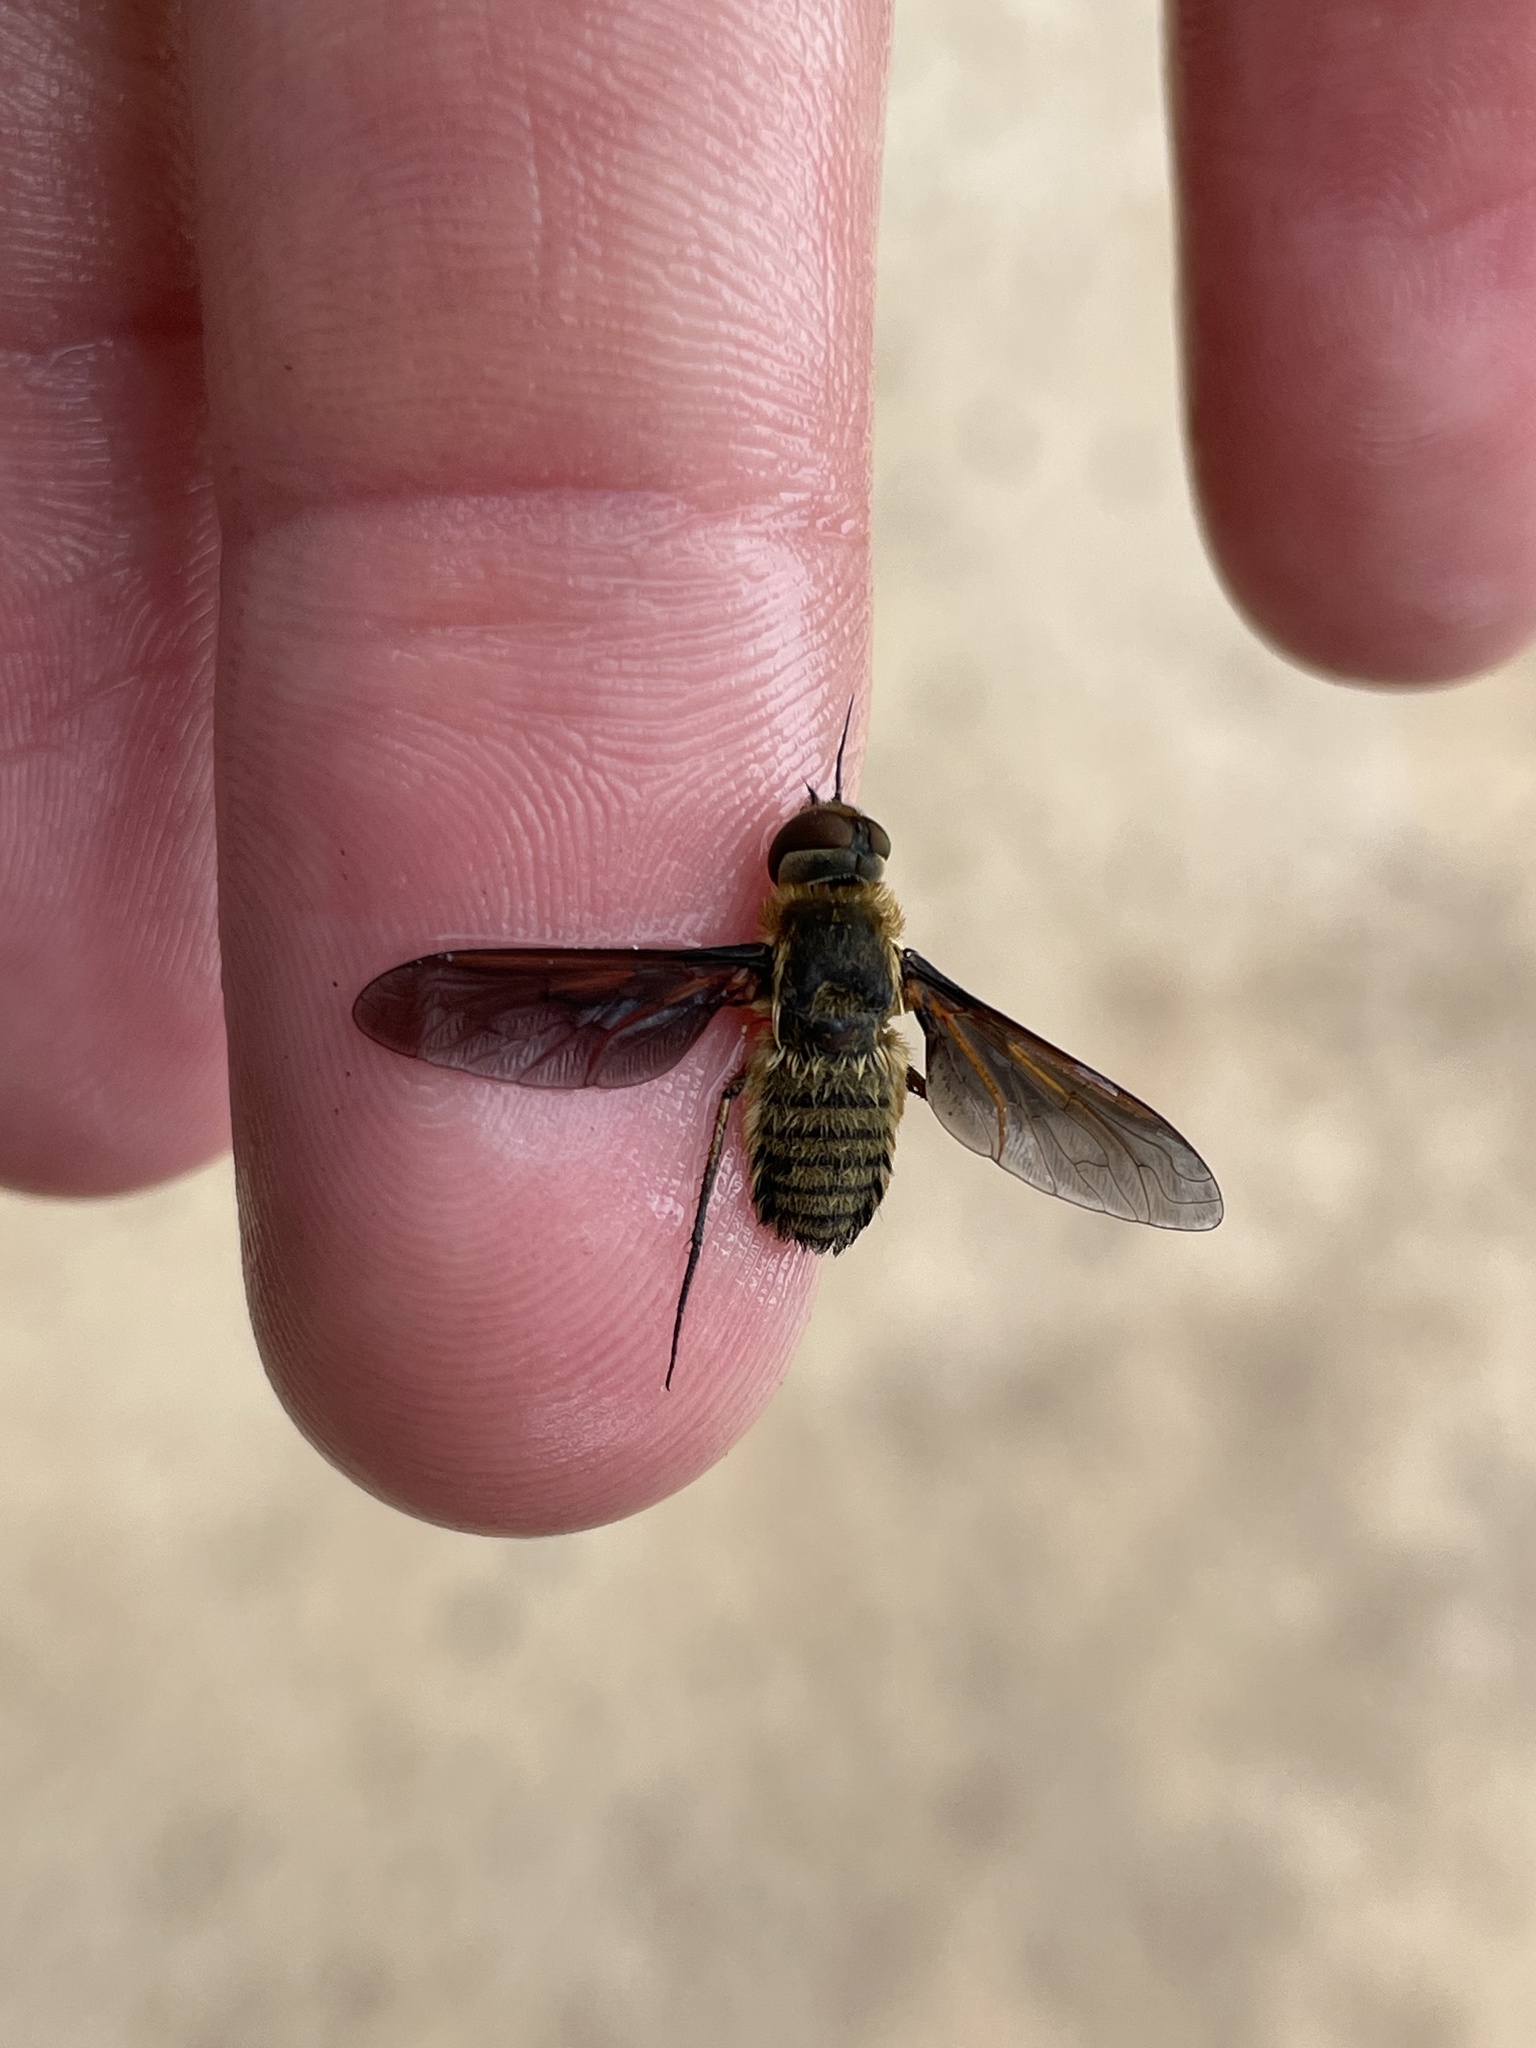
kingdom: Animalia
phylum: Arthropoda
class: Insecta
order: Diptera
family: Bombyliidae
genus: Poecilanthrax
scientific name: Poecilanthrax lucifer
